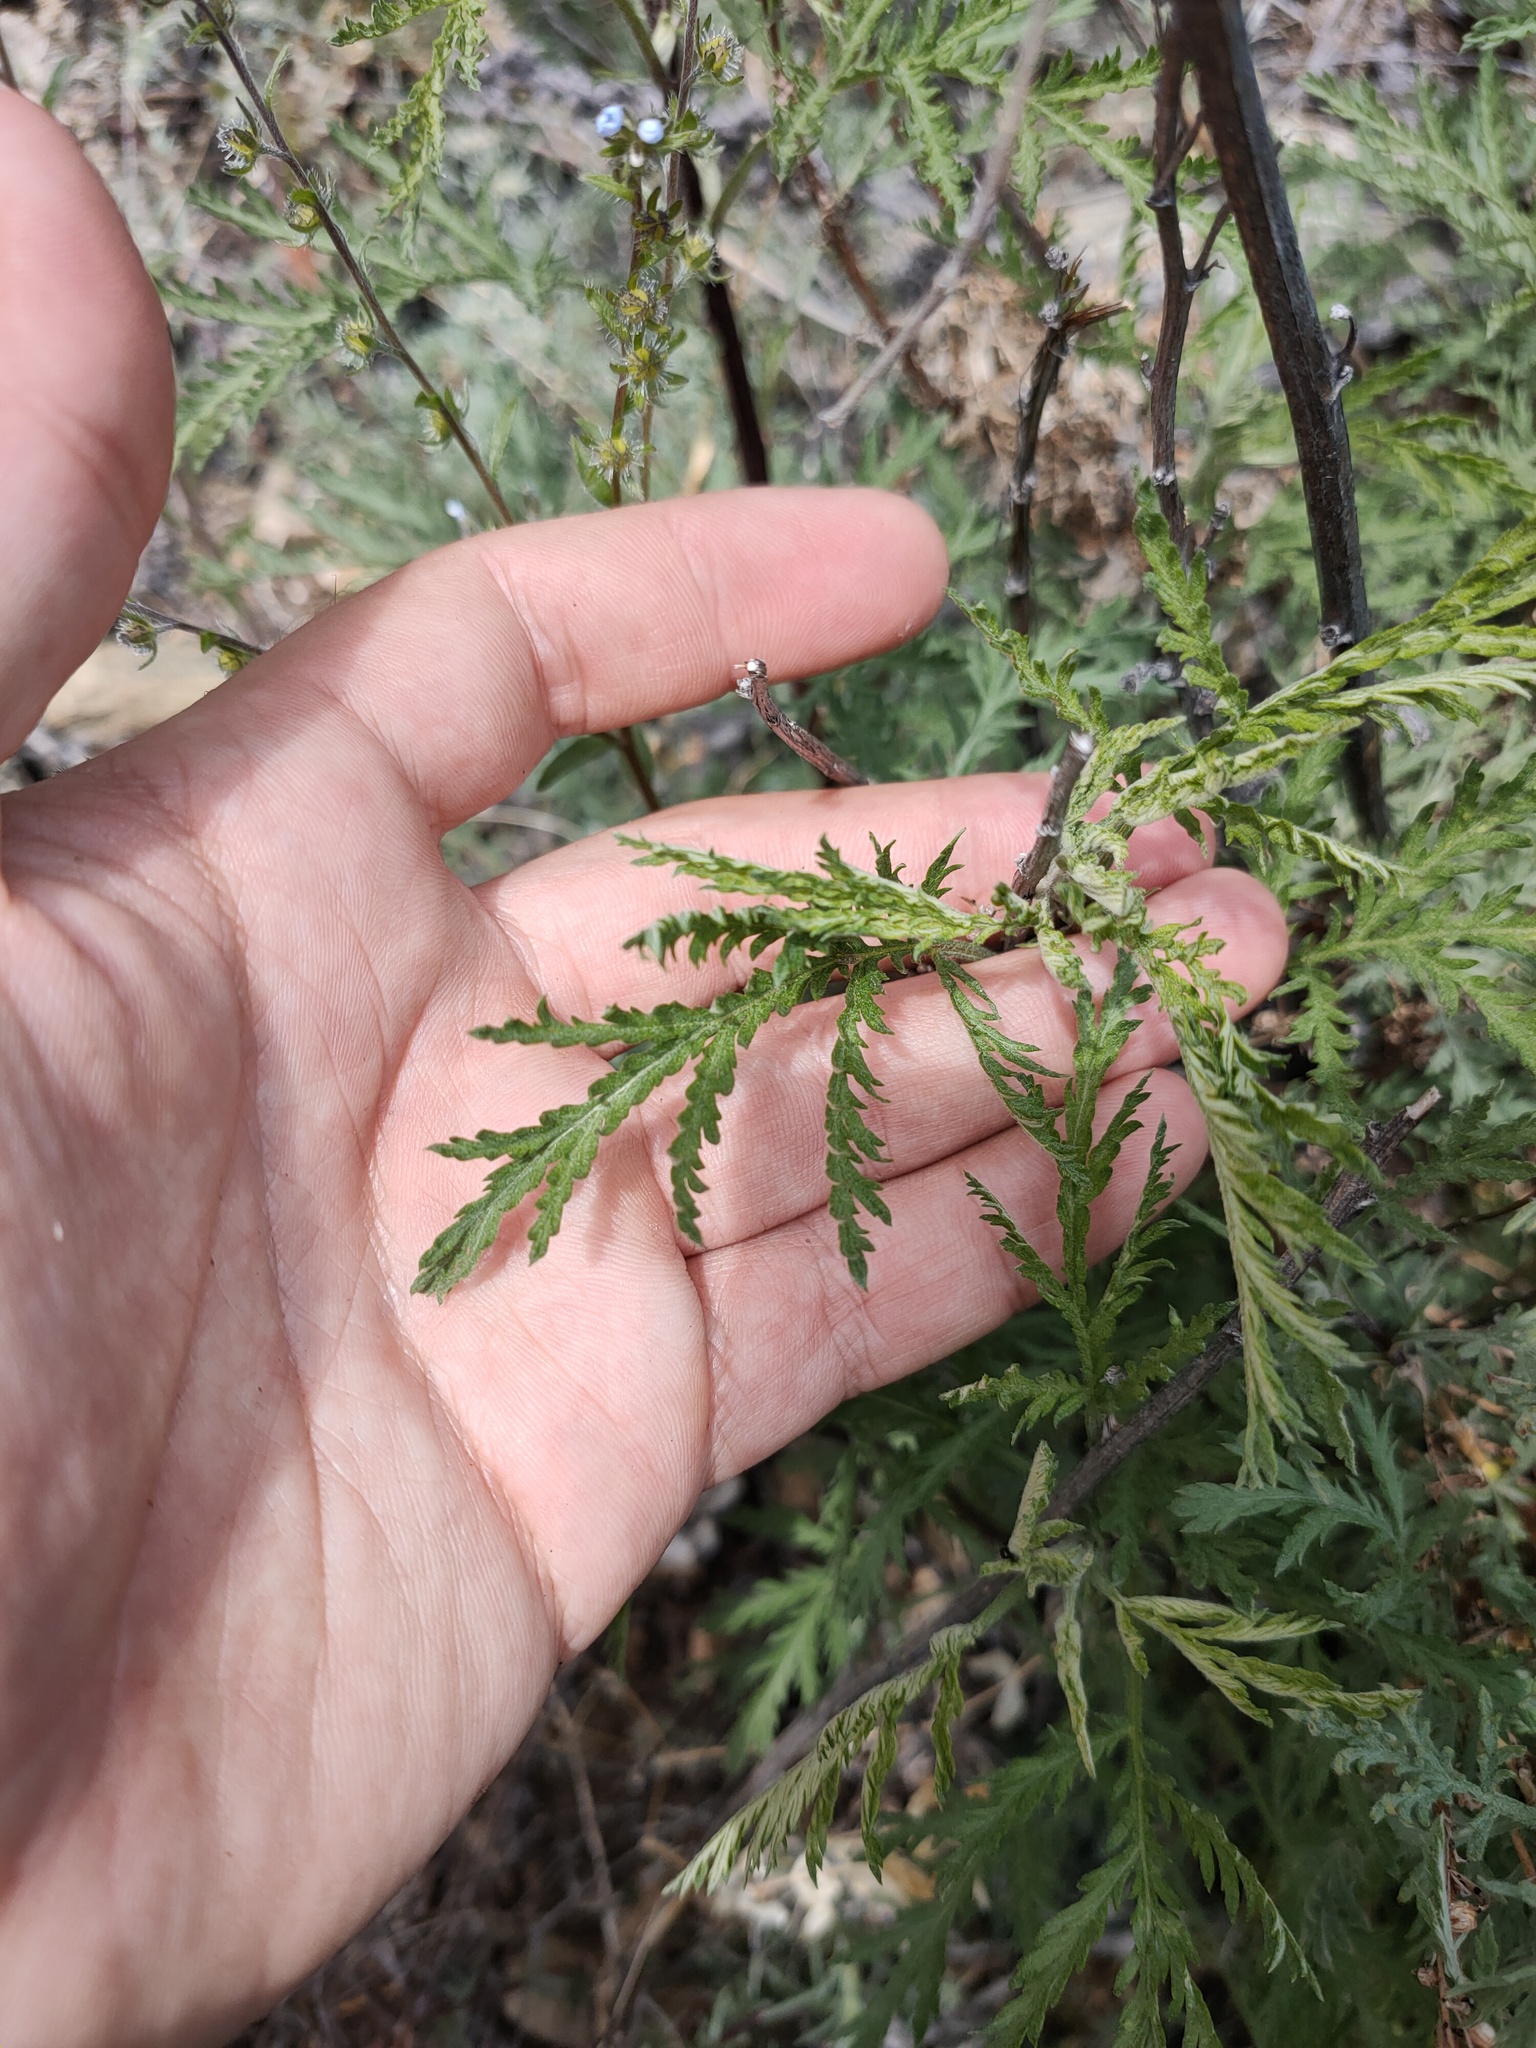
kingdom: Plantae
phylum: Tracheophyta
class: Magnoliopsida
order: Asterales
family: Asteraceae
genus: Artemisia
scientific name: Artemisia gmelinii
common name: Gmelin's wormwood
